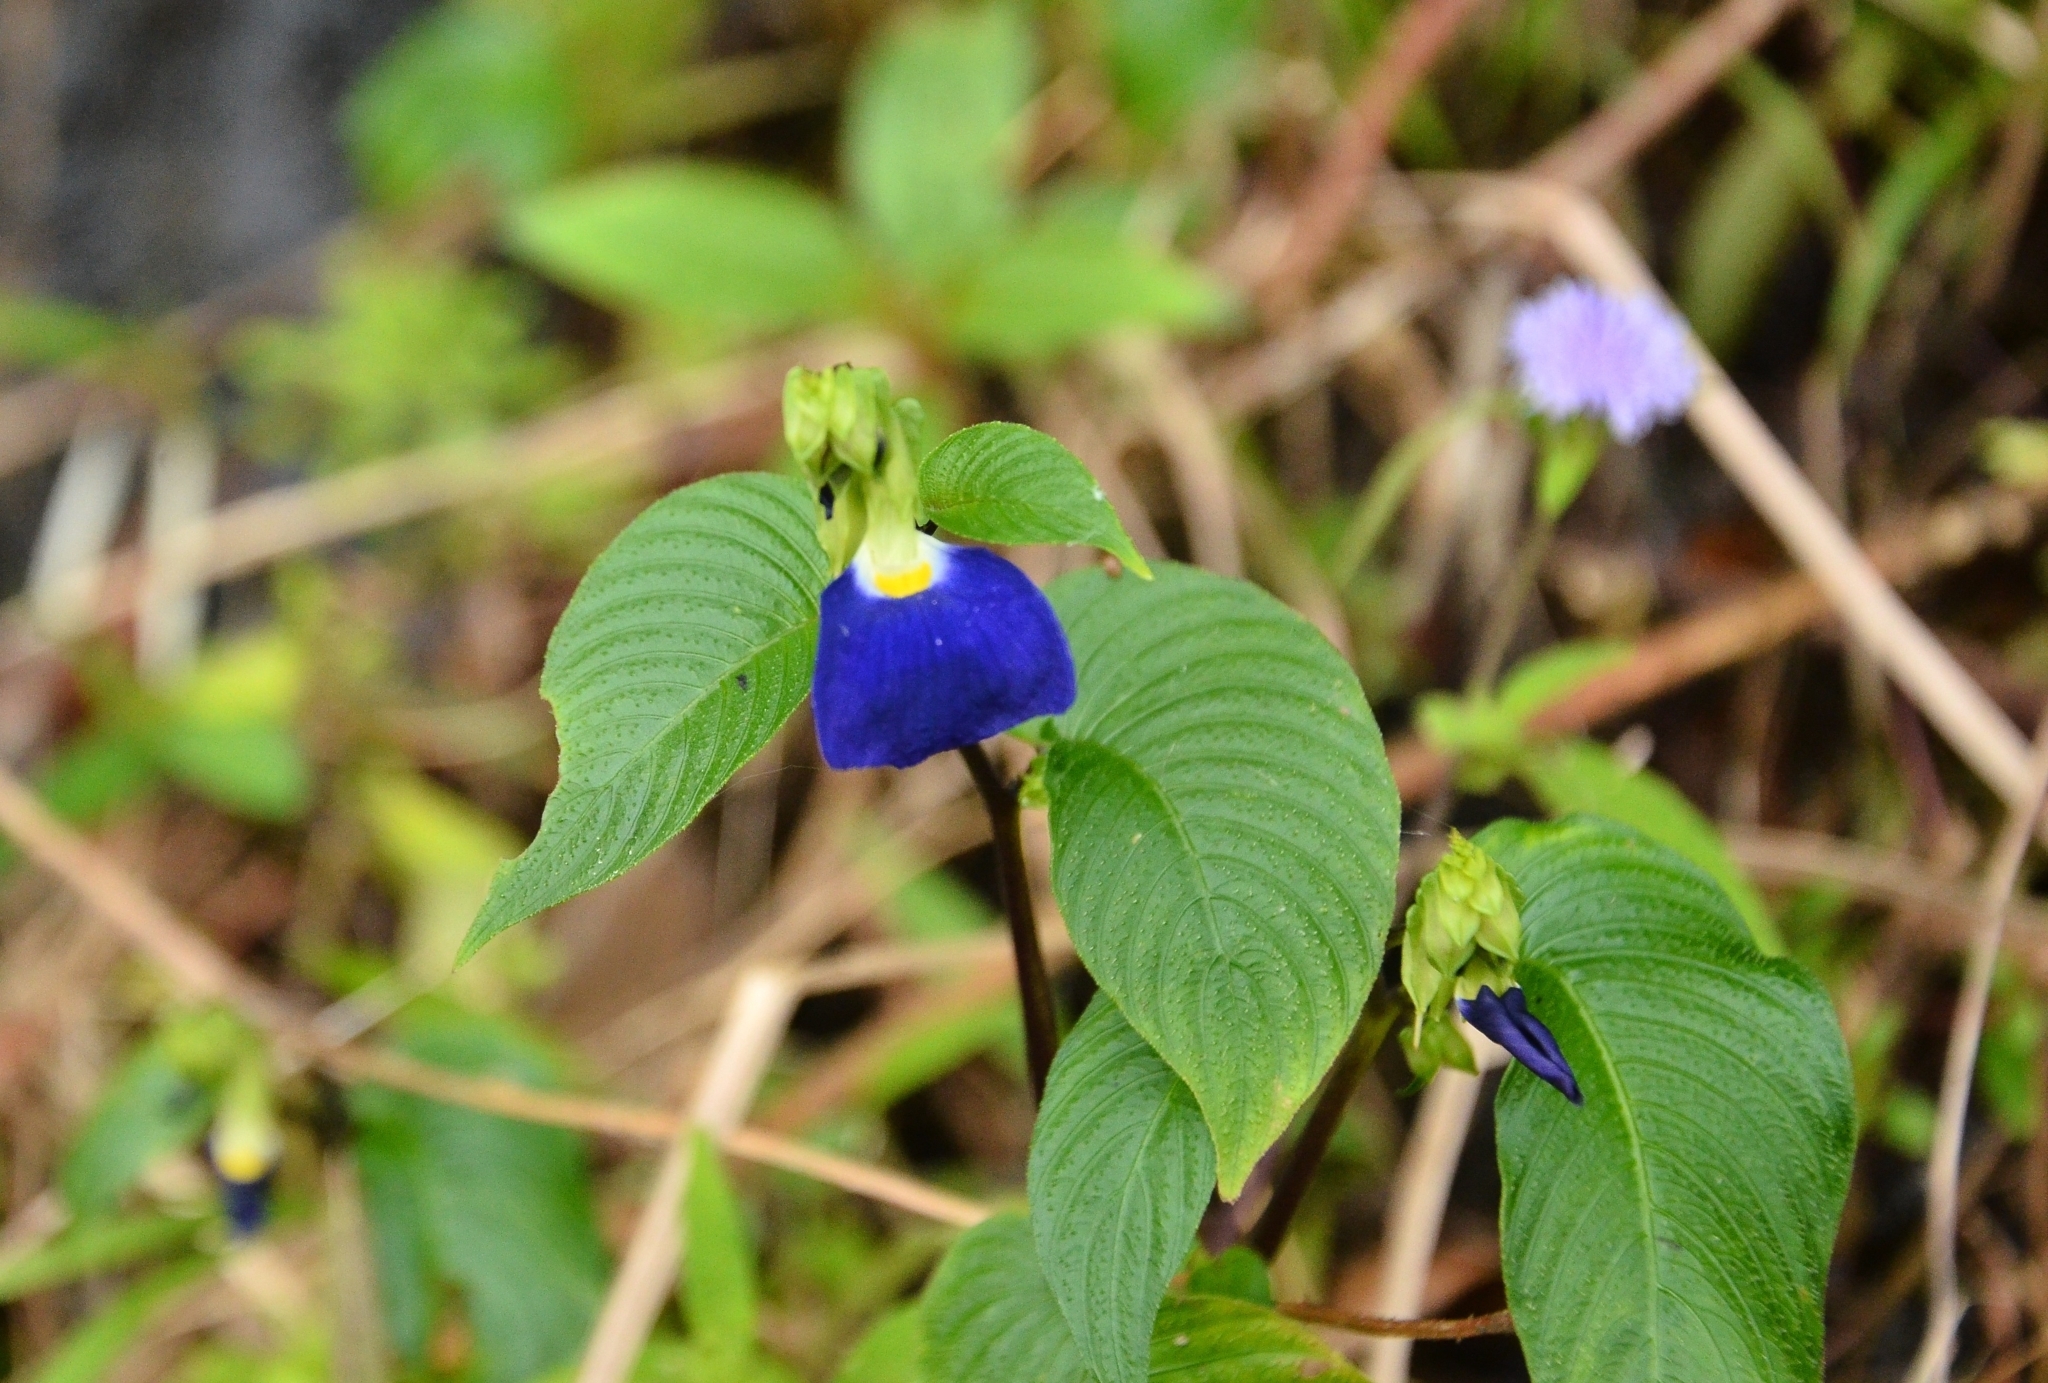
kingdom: Plantae
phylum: Tracheophyta
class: Magnoliopsida
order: Lamiales
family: Gesneriaceae
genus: Rhynchoglossum
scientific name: Rhynchoglossum notonianum
